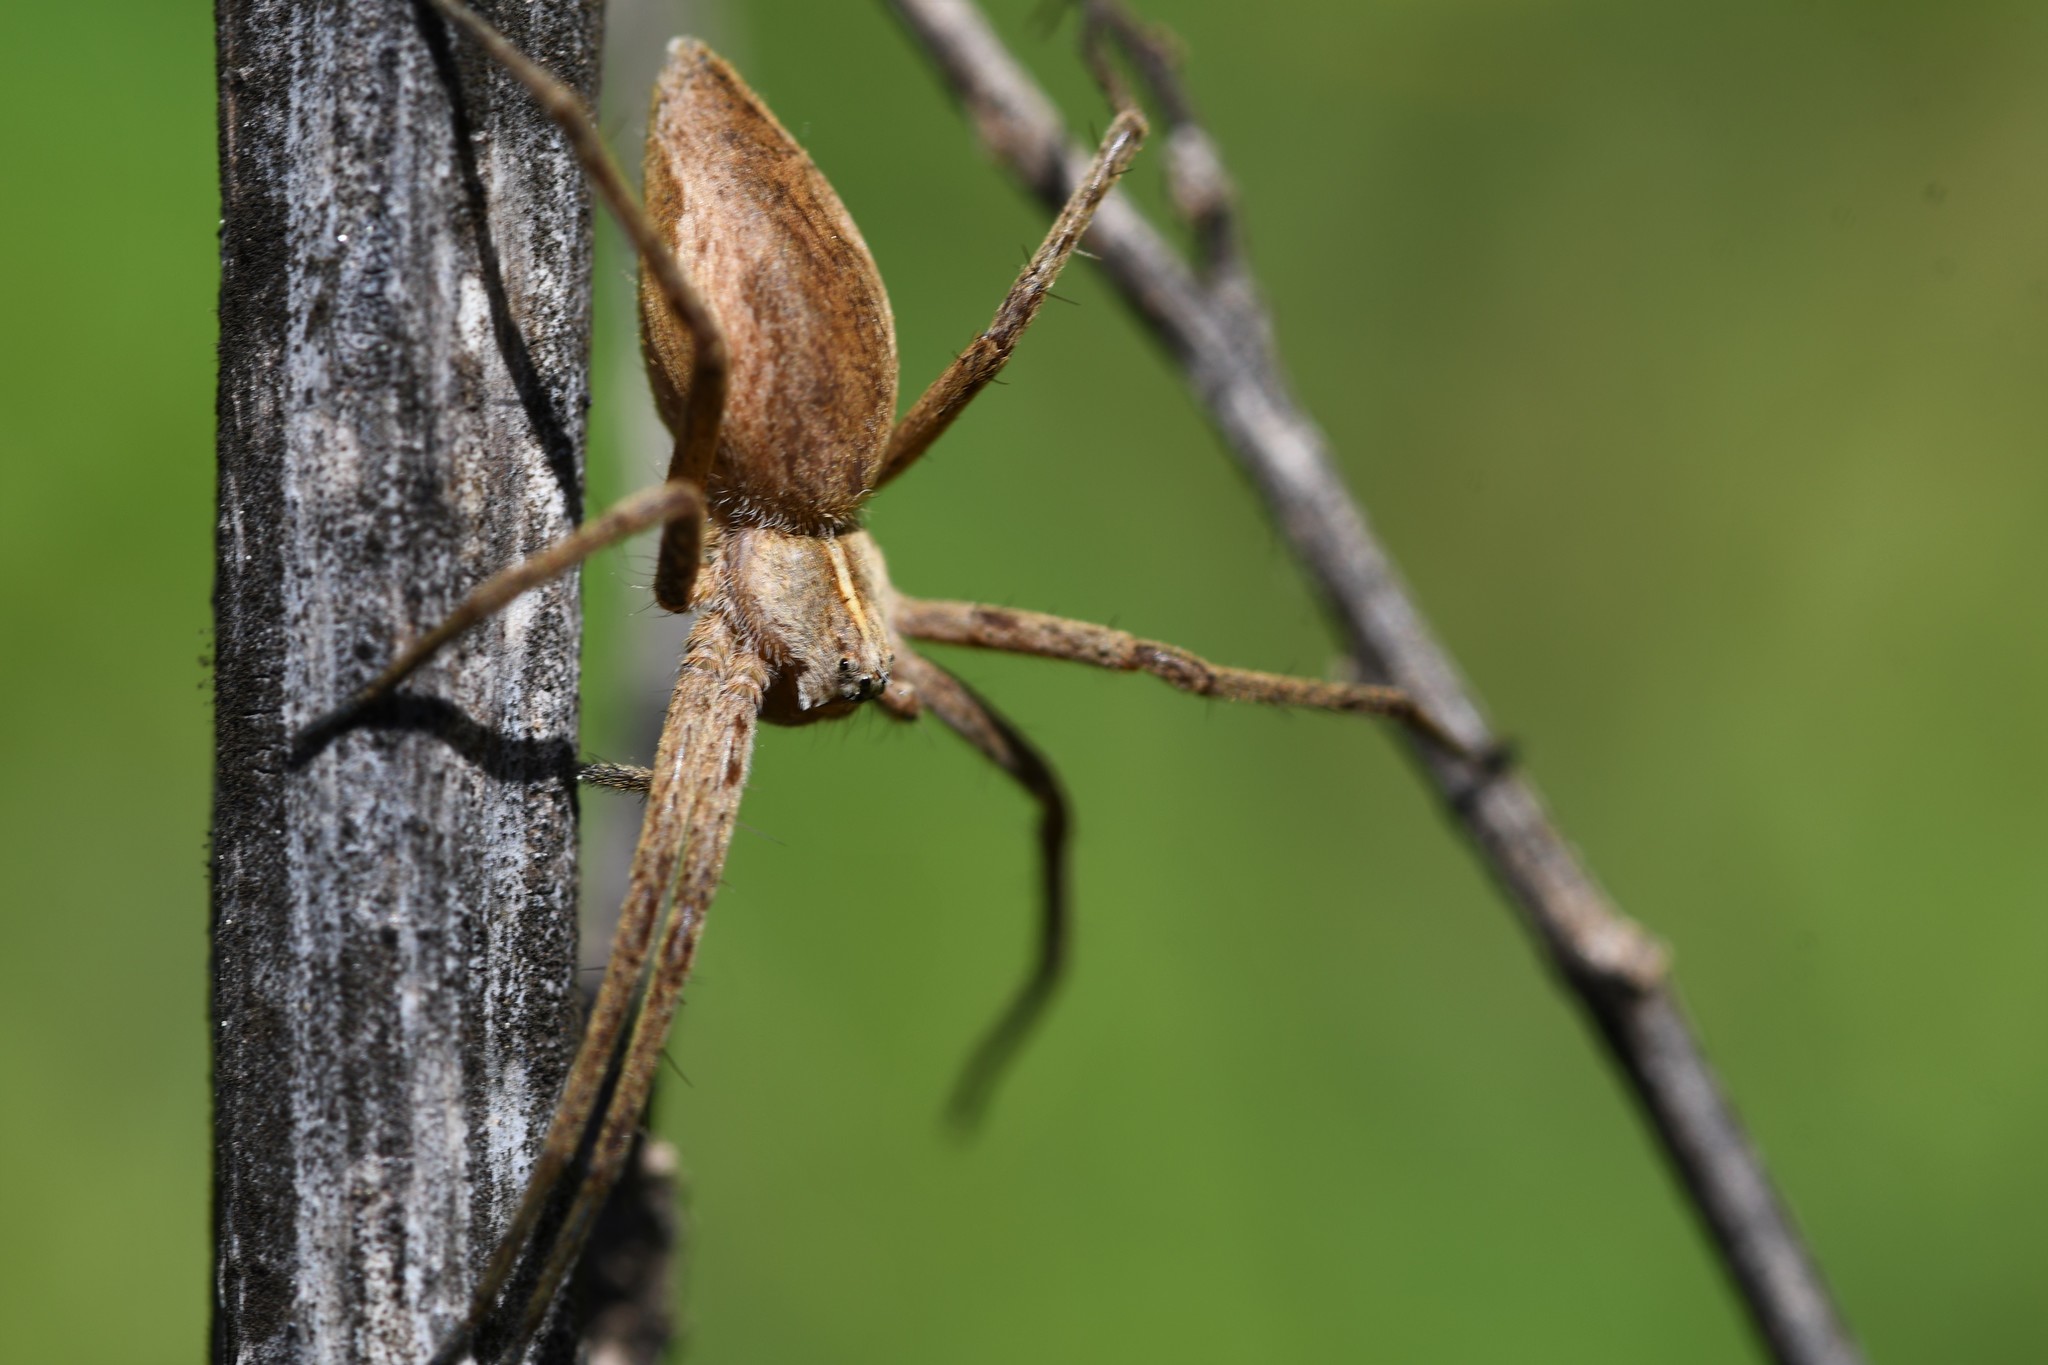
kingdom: Animalia
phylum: Arthropoda
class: Arachnida
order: Araneae
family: Pisauridae
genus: Pisaura
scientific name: Pisaura mirabilis
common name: Tent spider
